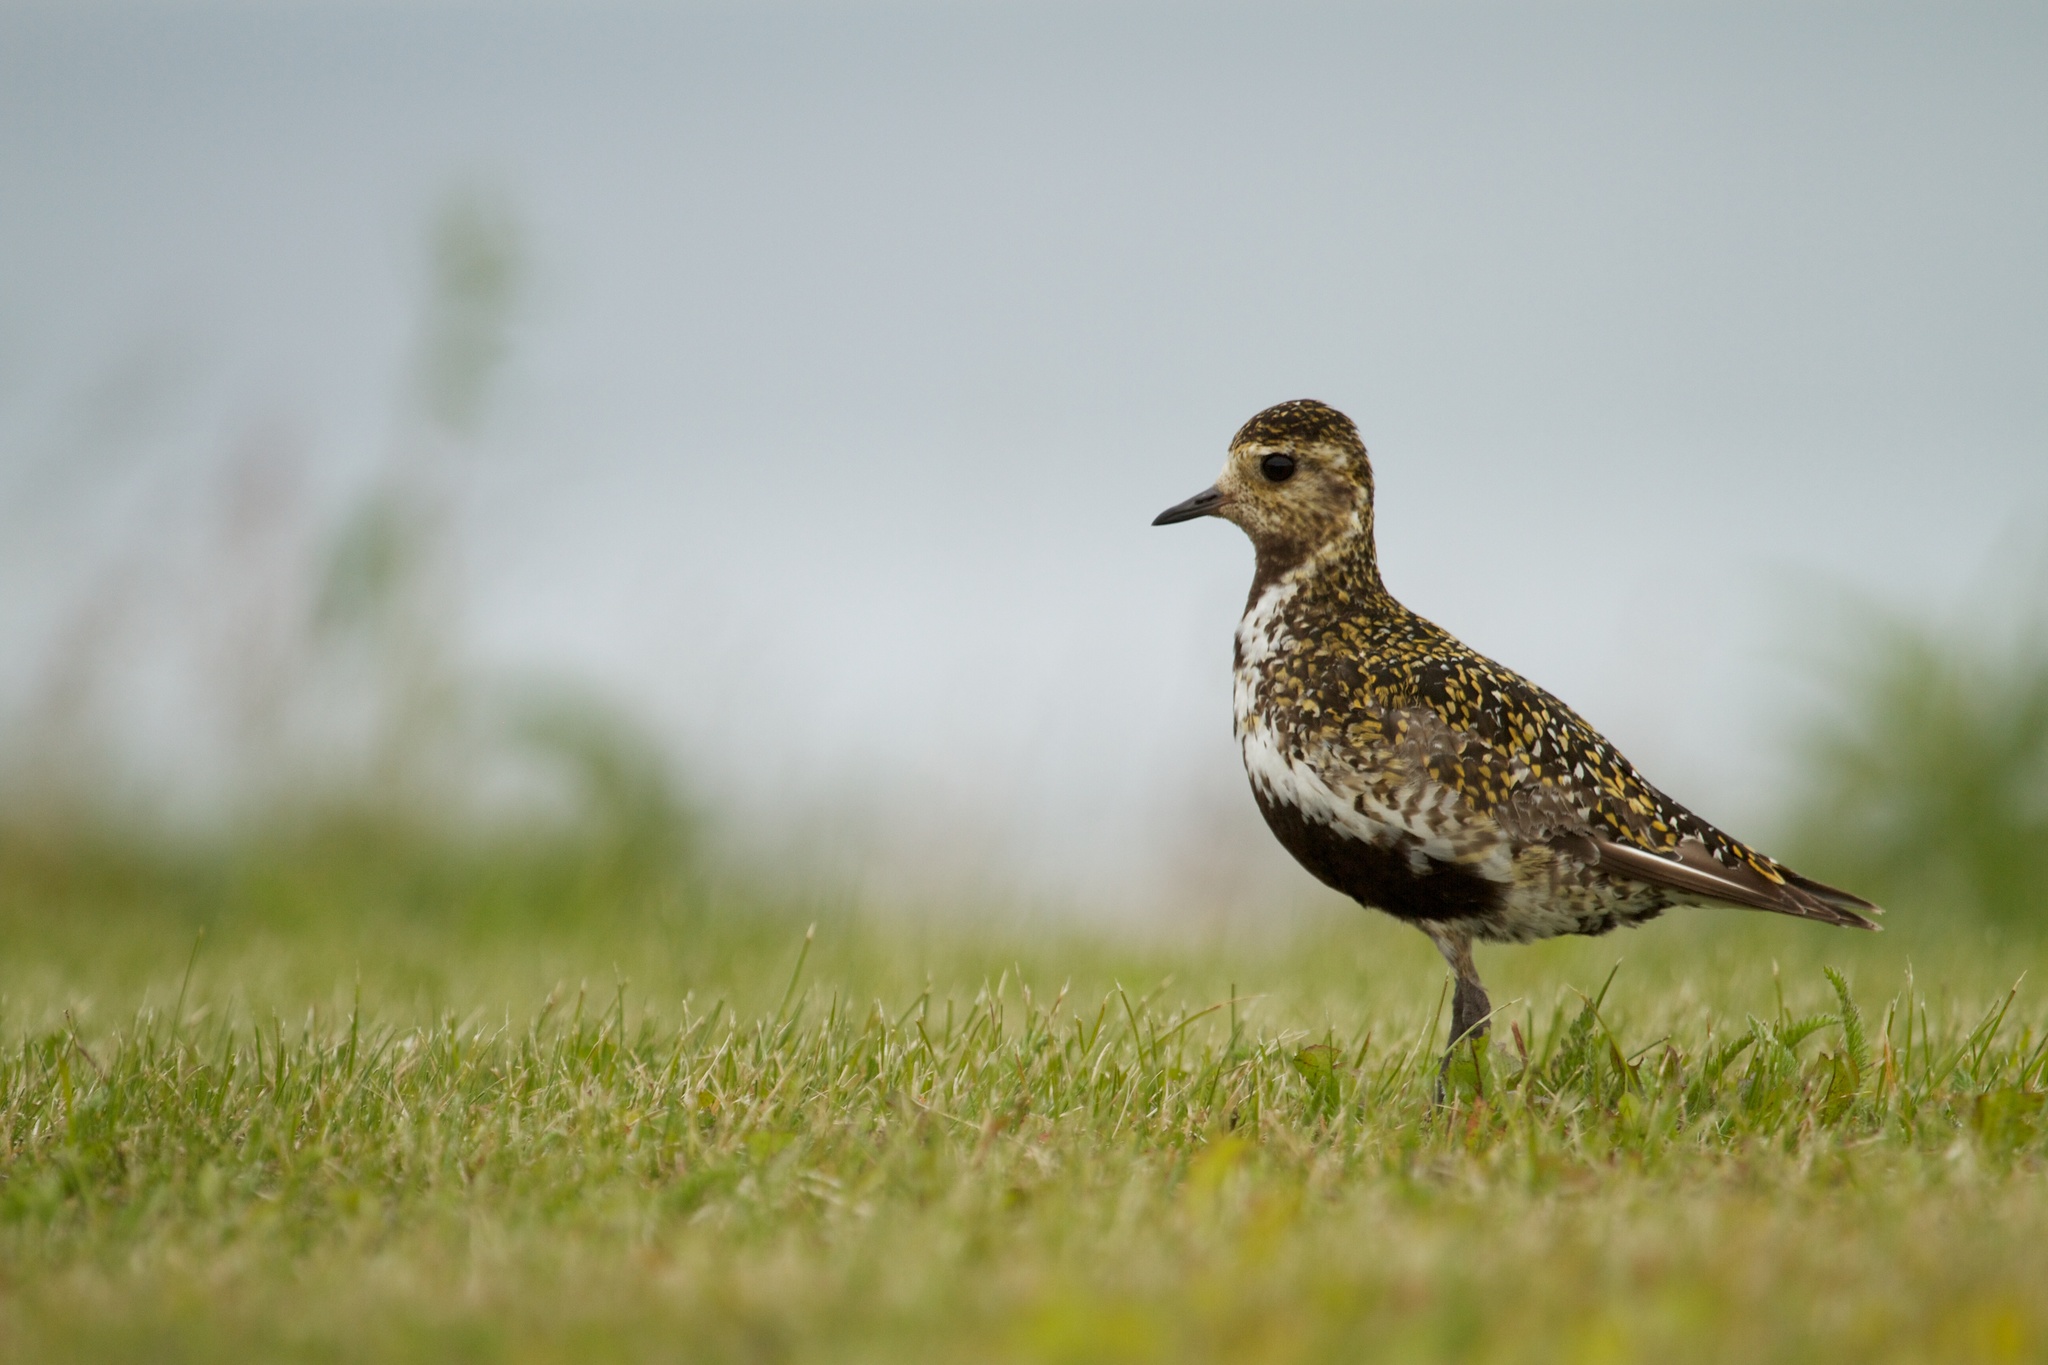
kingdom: Animalia
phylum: Chordata
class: Aves
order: Charadriiformes
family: Charadriidae
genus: Pluvialis
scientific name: Pluvialis apricaria
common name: European golden plover
